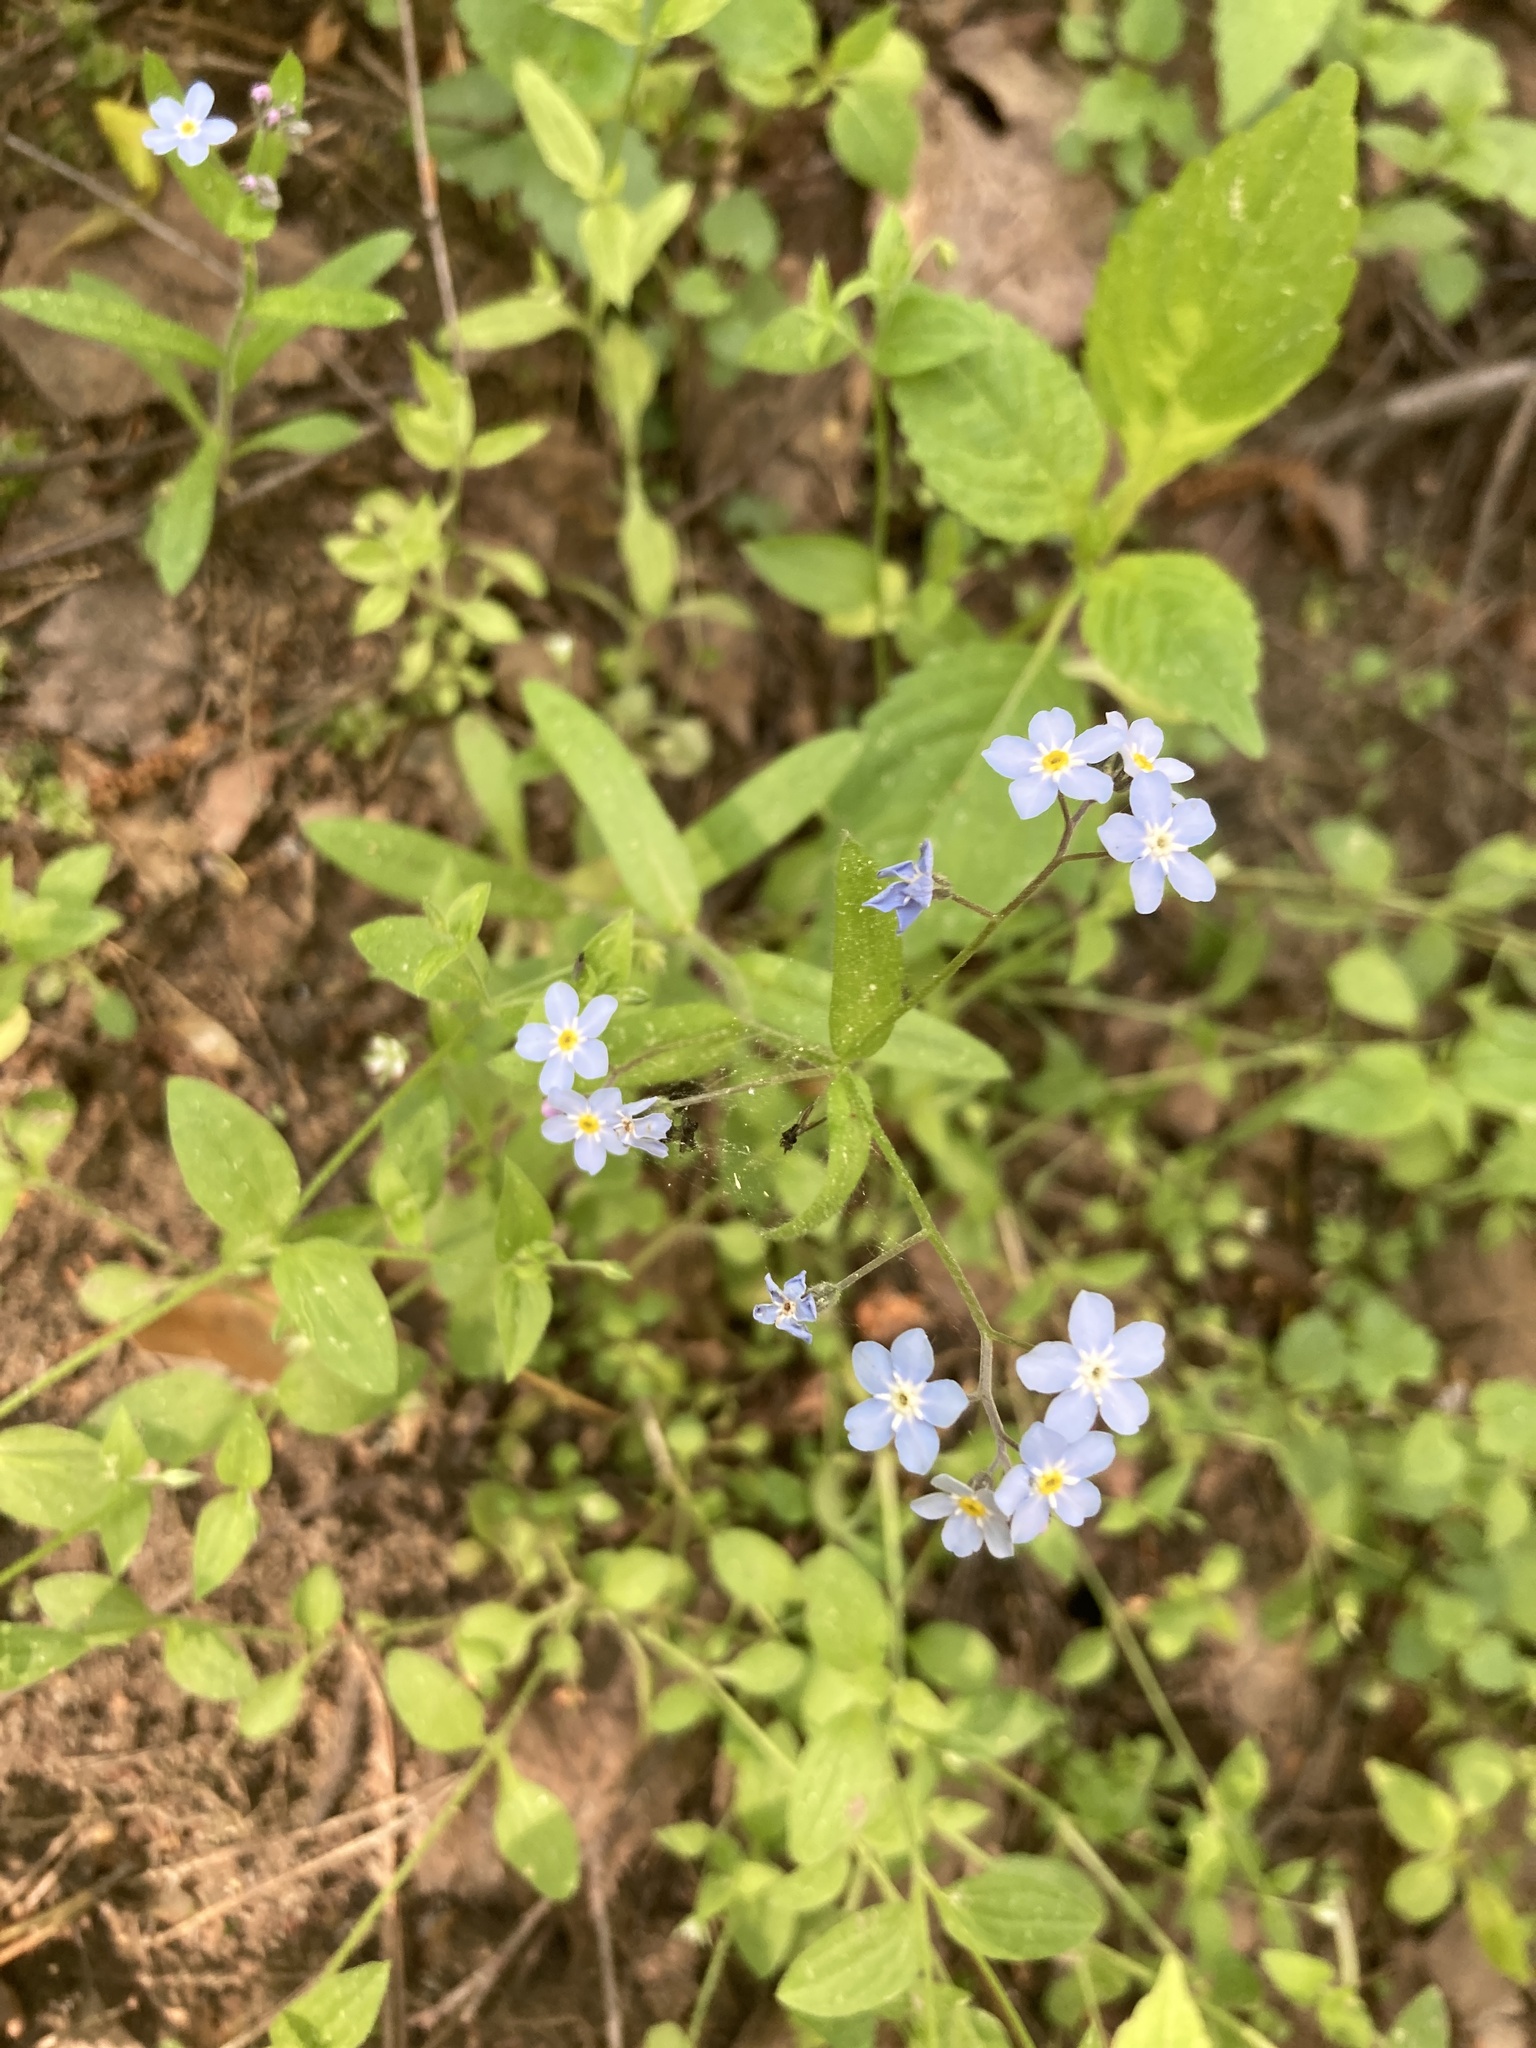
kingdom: Plantae
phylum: Tracheophyta
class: Magnoliopsida
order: Boraginales
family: Boraginaceae
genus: Myosotis
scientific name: Myosotis sylvatica
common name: Wood forget-me-not
